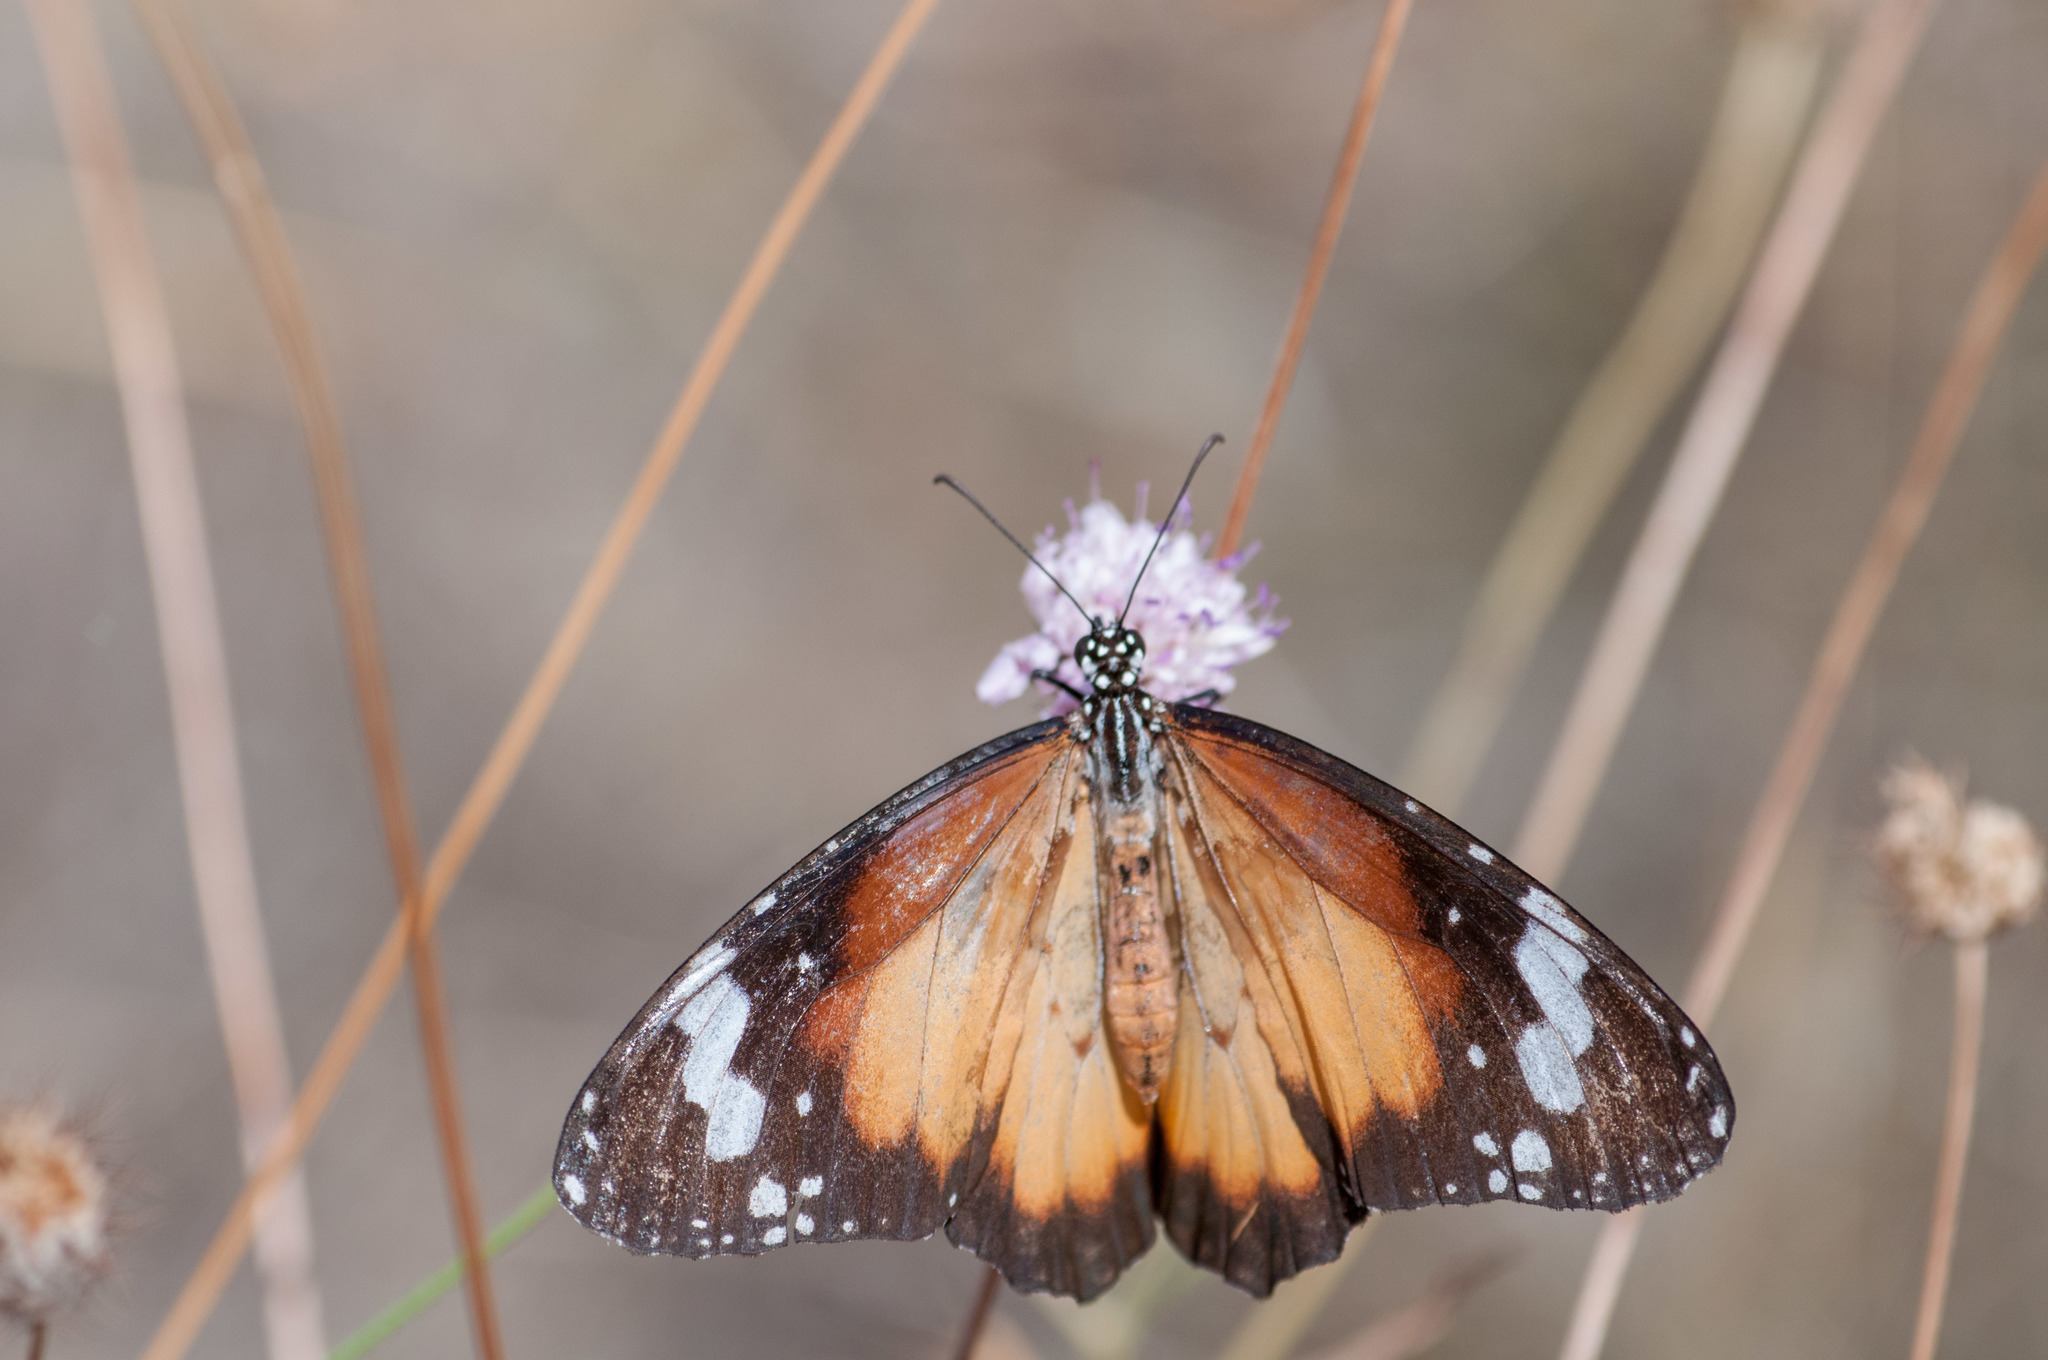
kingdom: Animalia
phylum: Arthropoda
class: Insecta
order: Lepidoptera
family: Nymphalidae
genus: Danaus
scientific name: Danaus chrysippus
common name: Plain tiger
